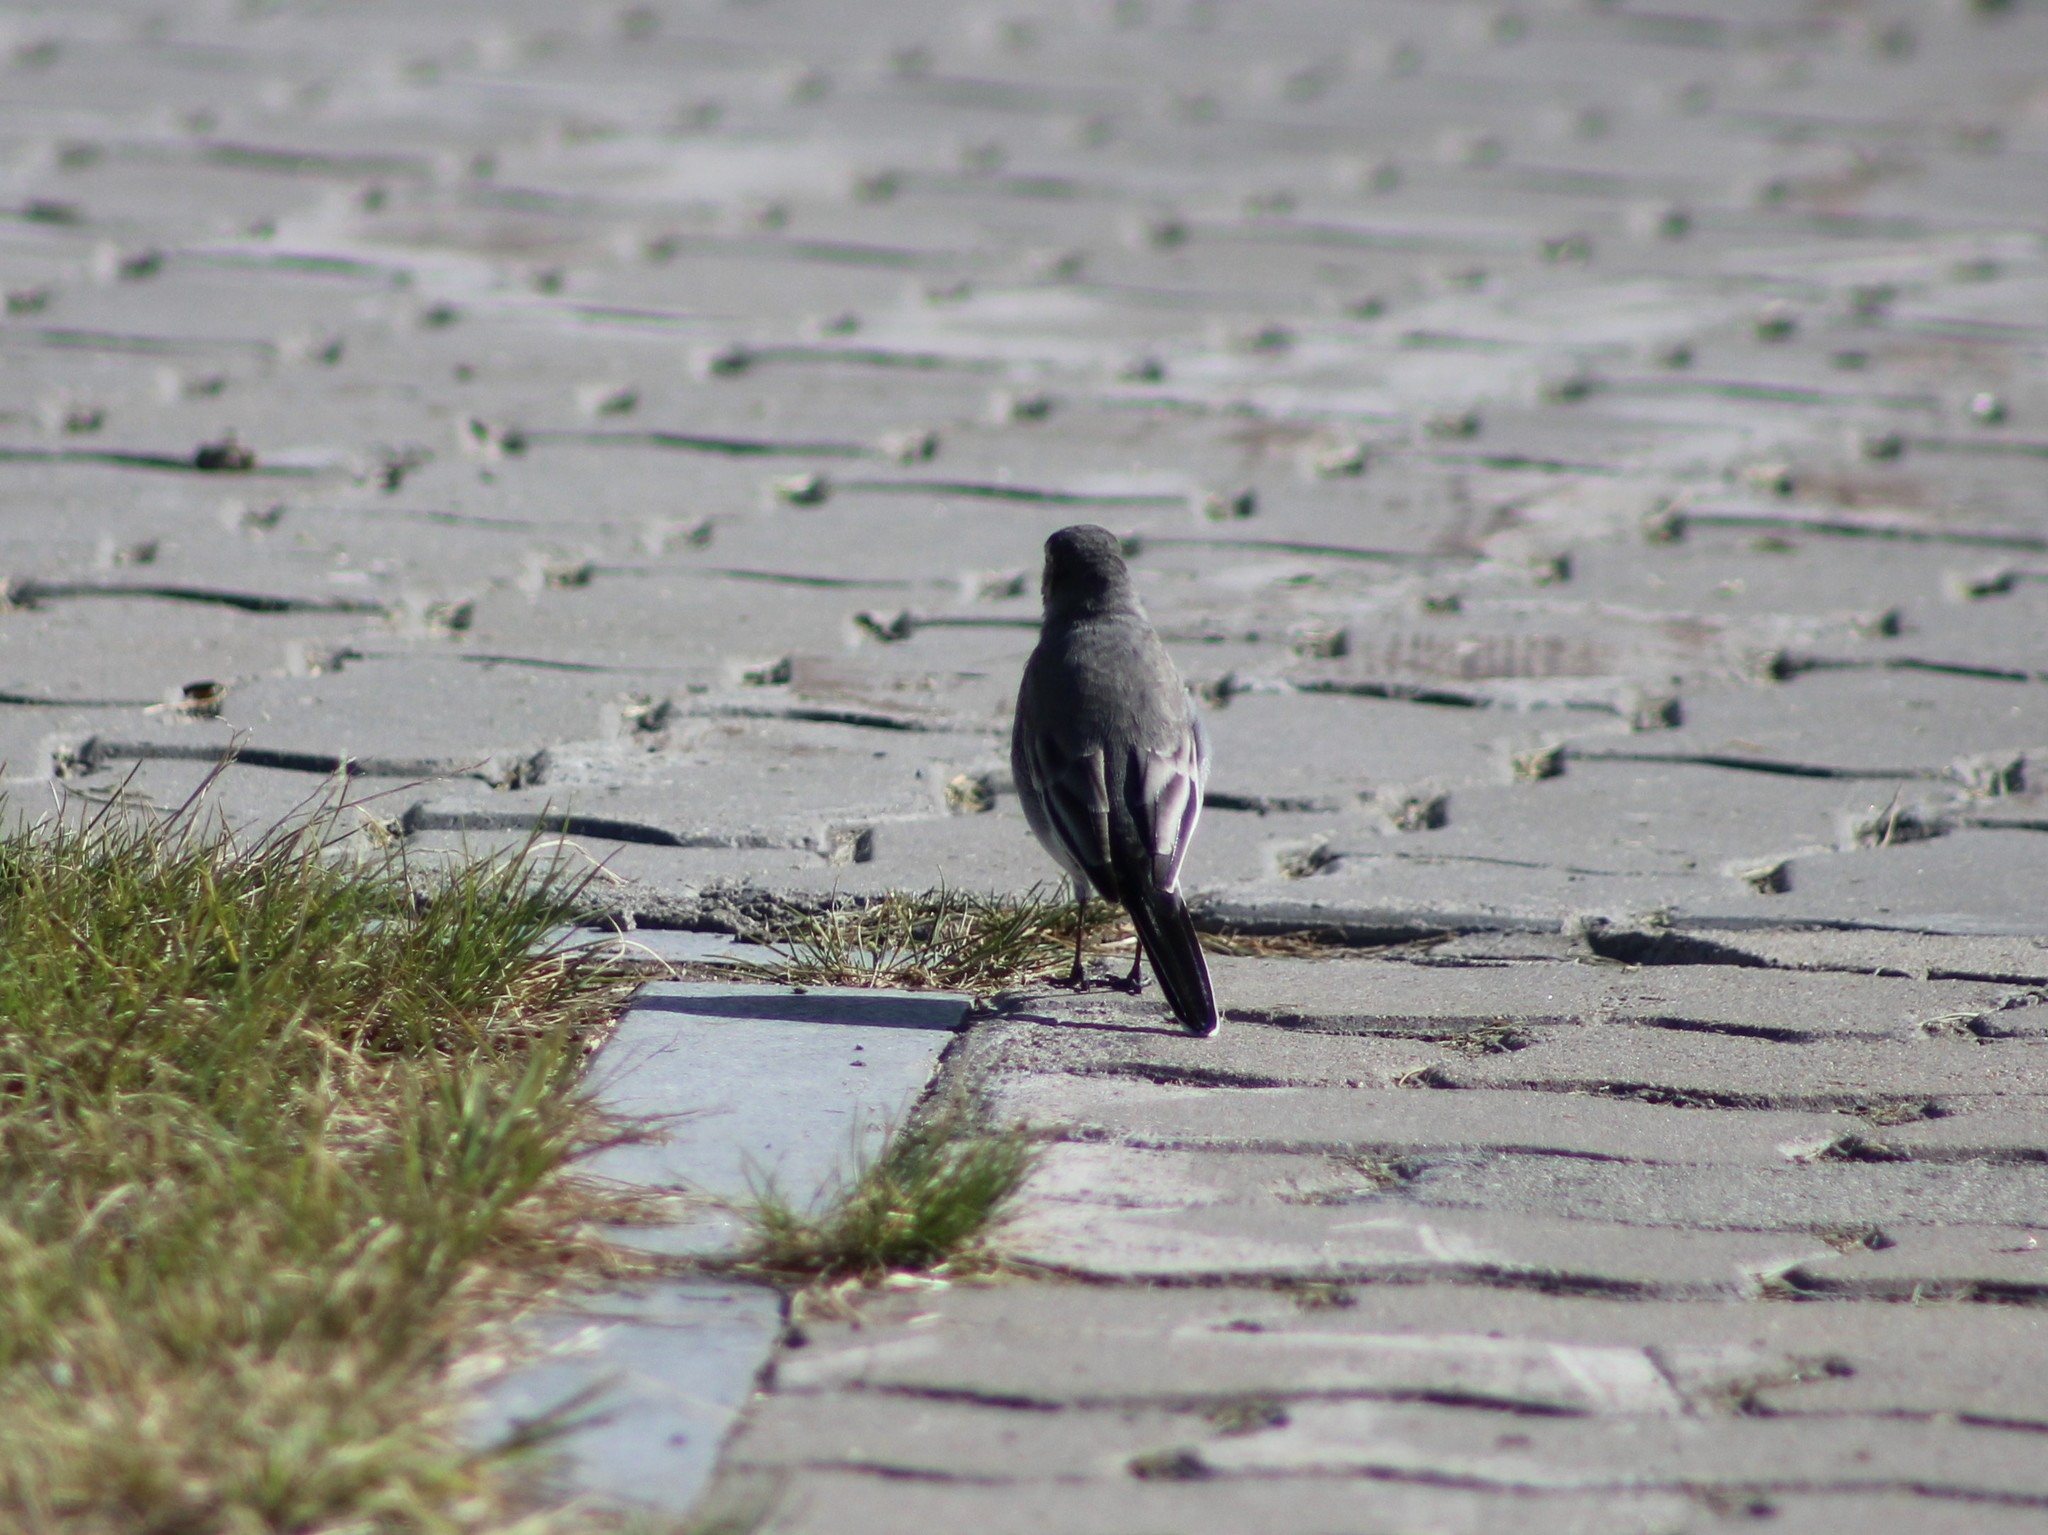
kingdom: Animalia
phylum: Chordata
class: Aves
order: Passeriformes
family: Motacillidae
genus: Motacilla
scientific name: Motacilla alba
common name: White wagtail
